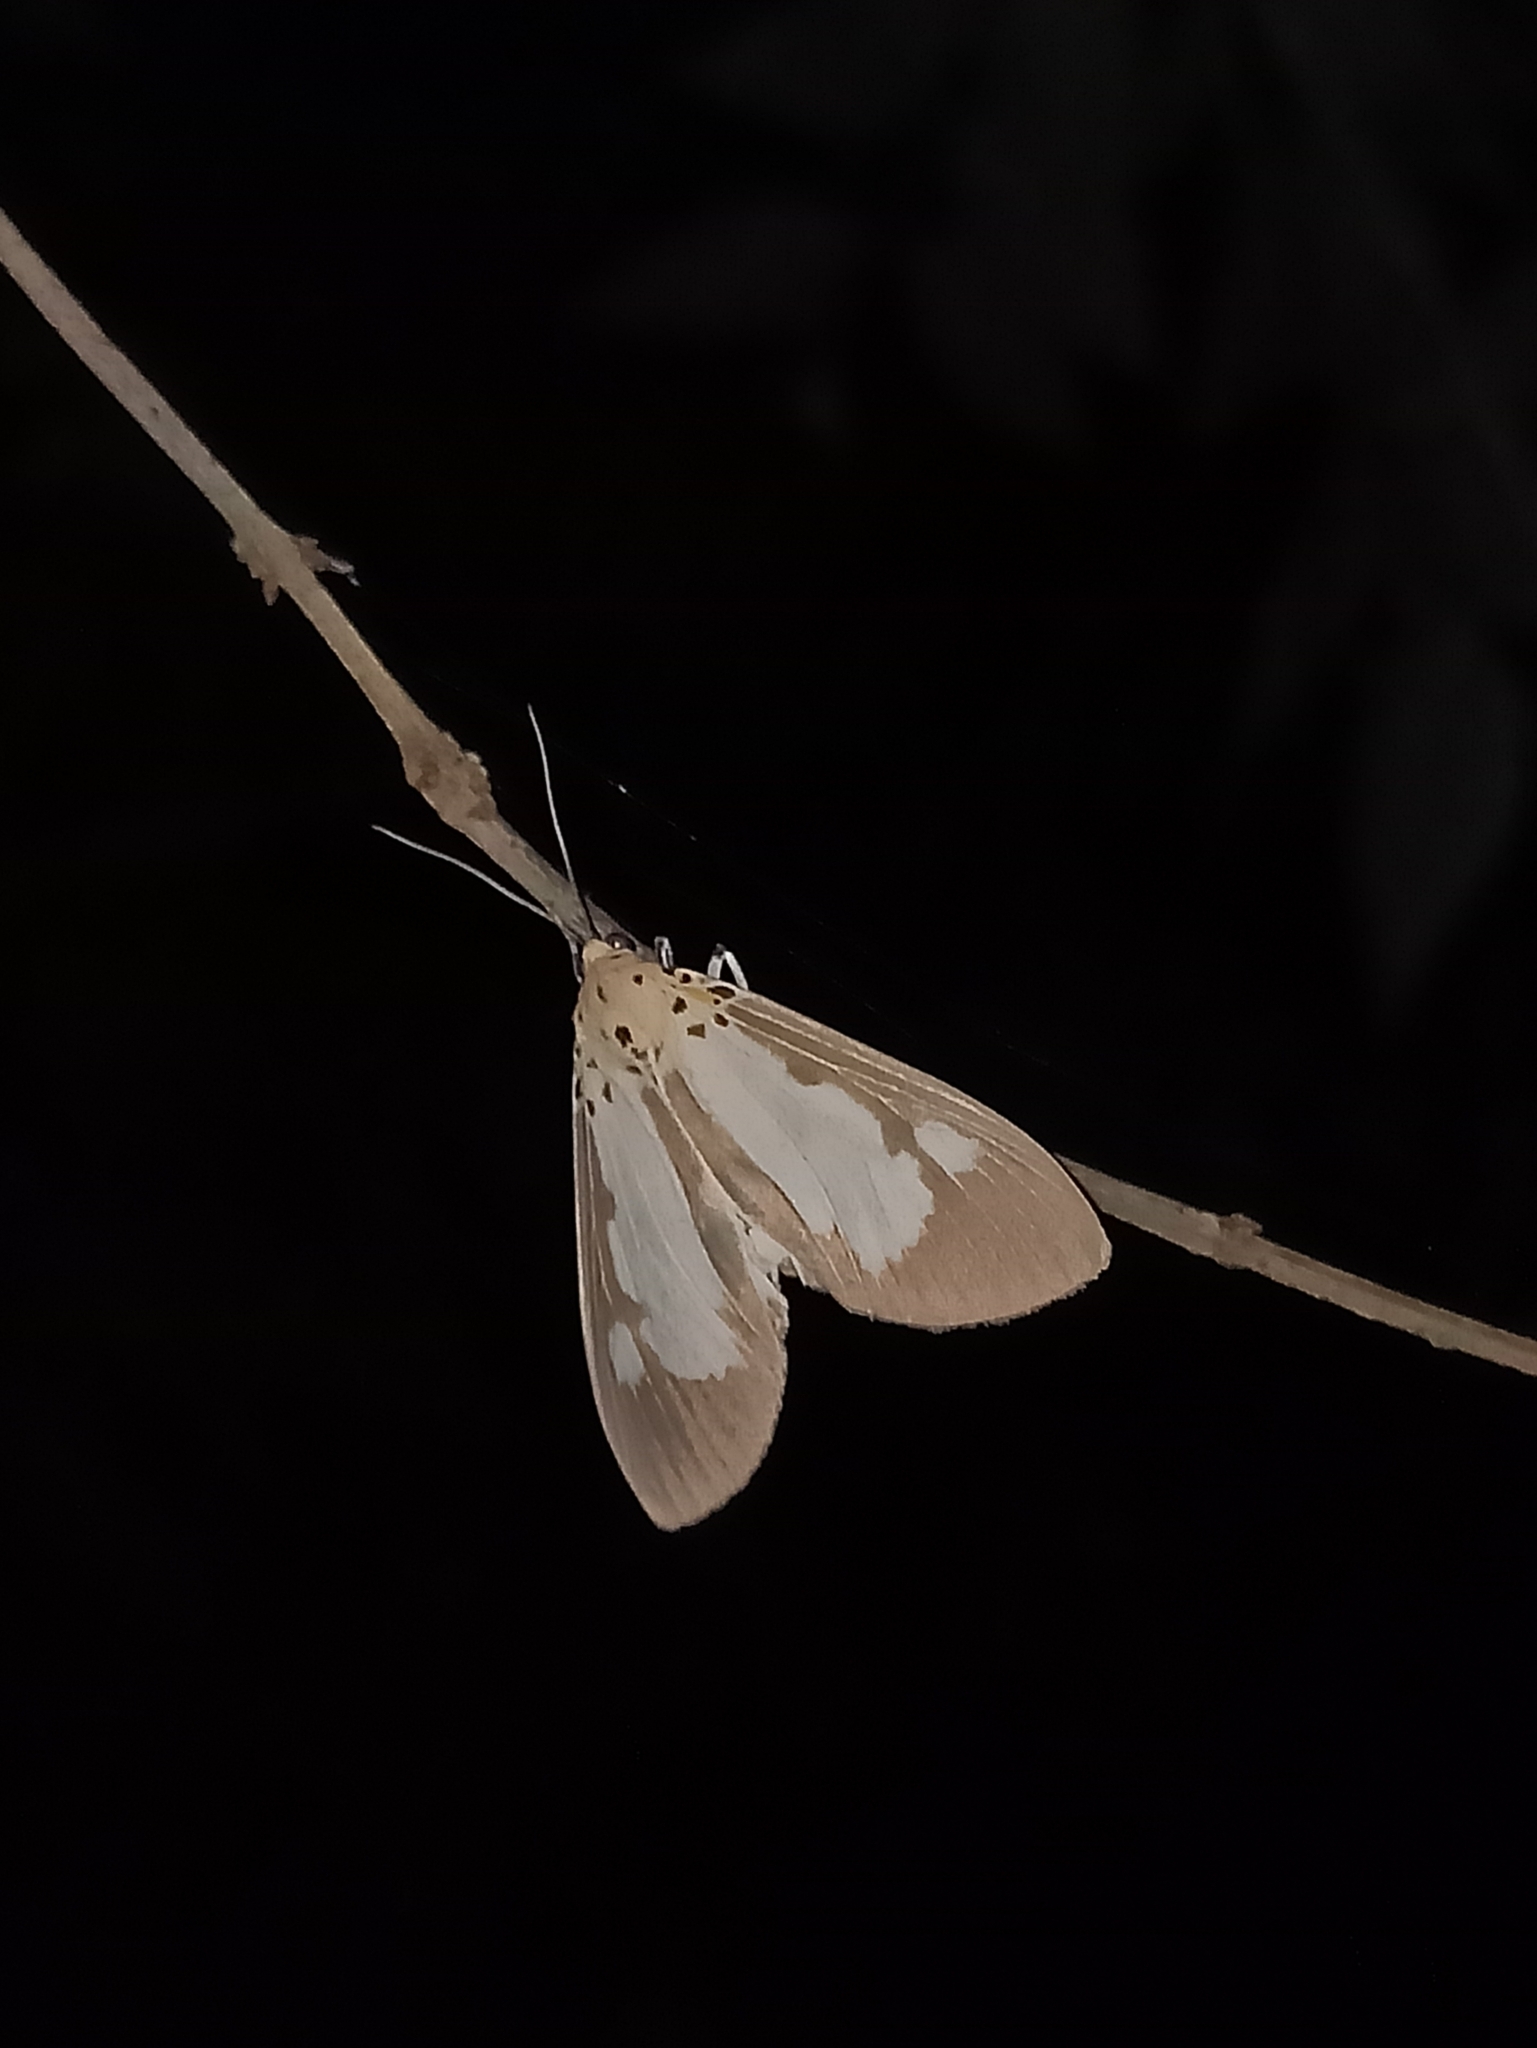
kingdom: Animalia
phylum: Arthropoda
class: Insecta
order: Lepidoptera
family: Erebidae
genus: Asota
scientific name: Asota plana
